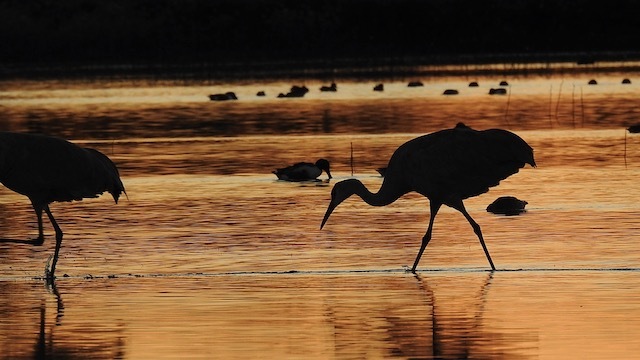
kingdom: Animalia
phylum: Chordata
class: Aves
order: Gruiformes
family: Gruidae
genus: Grus
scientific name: Grus canadensis
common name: Sandhill crane
